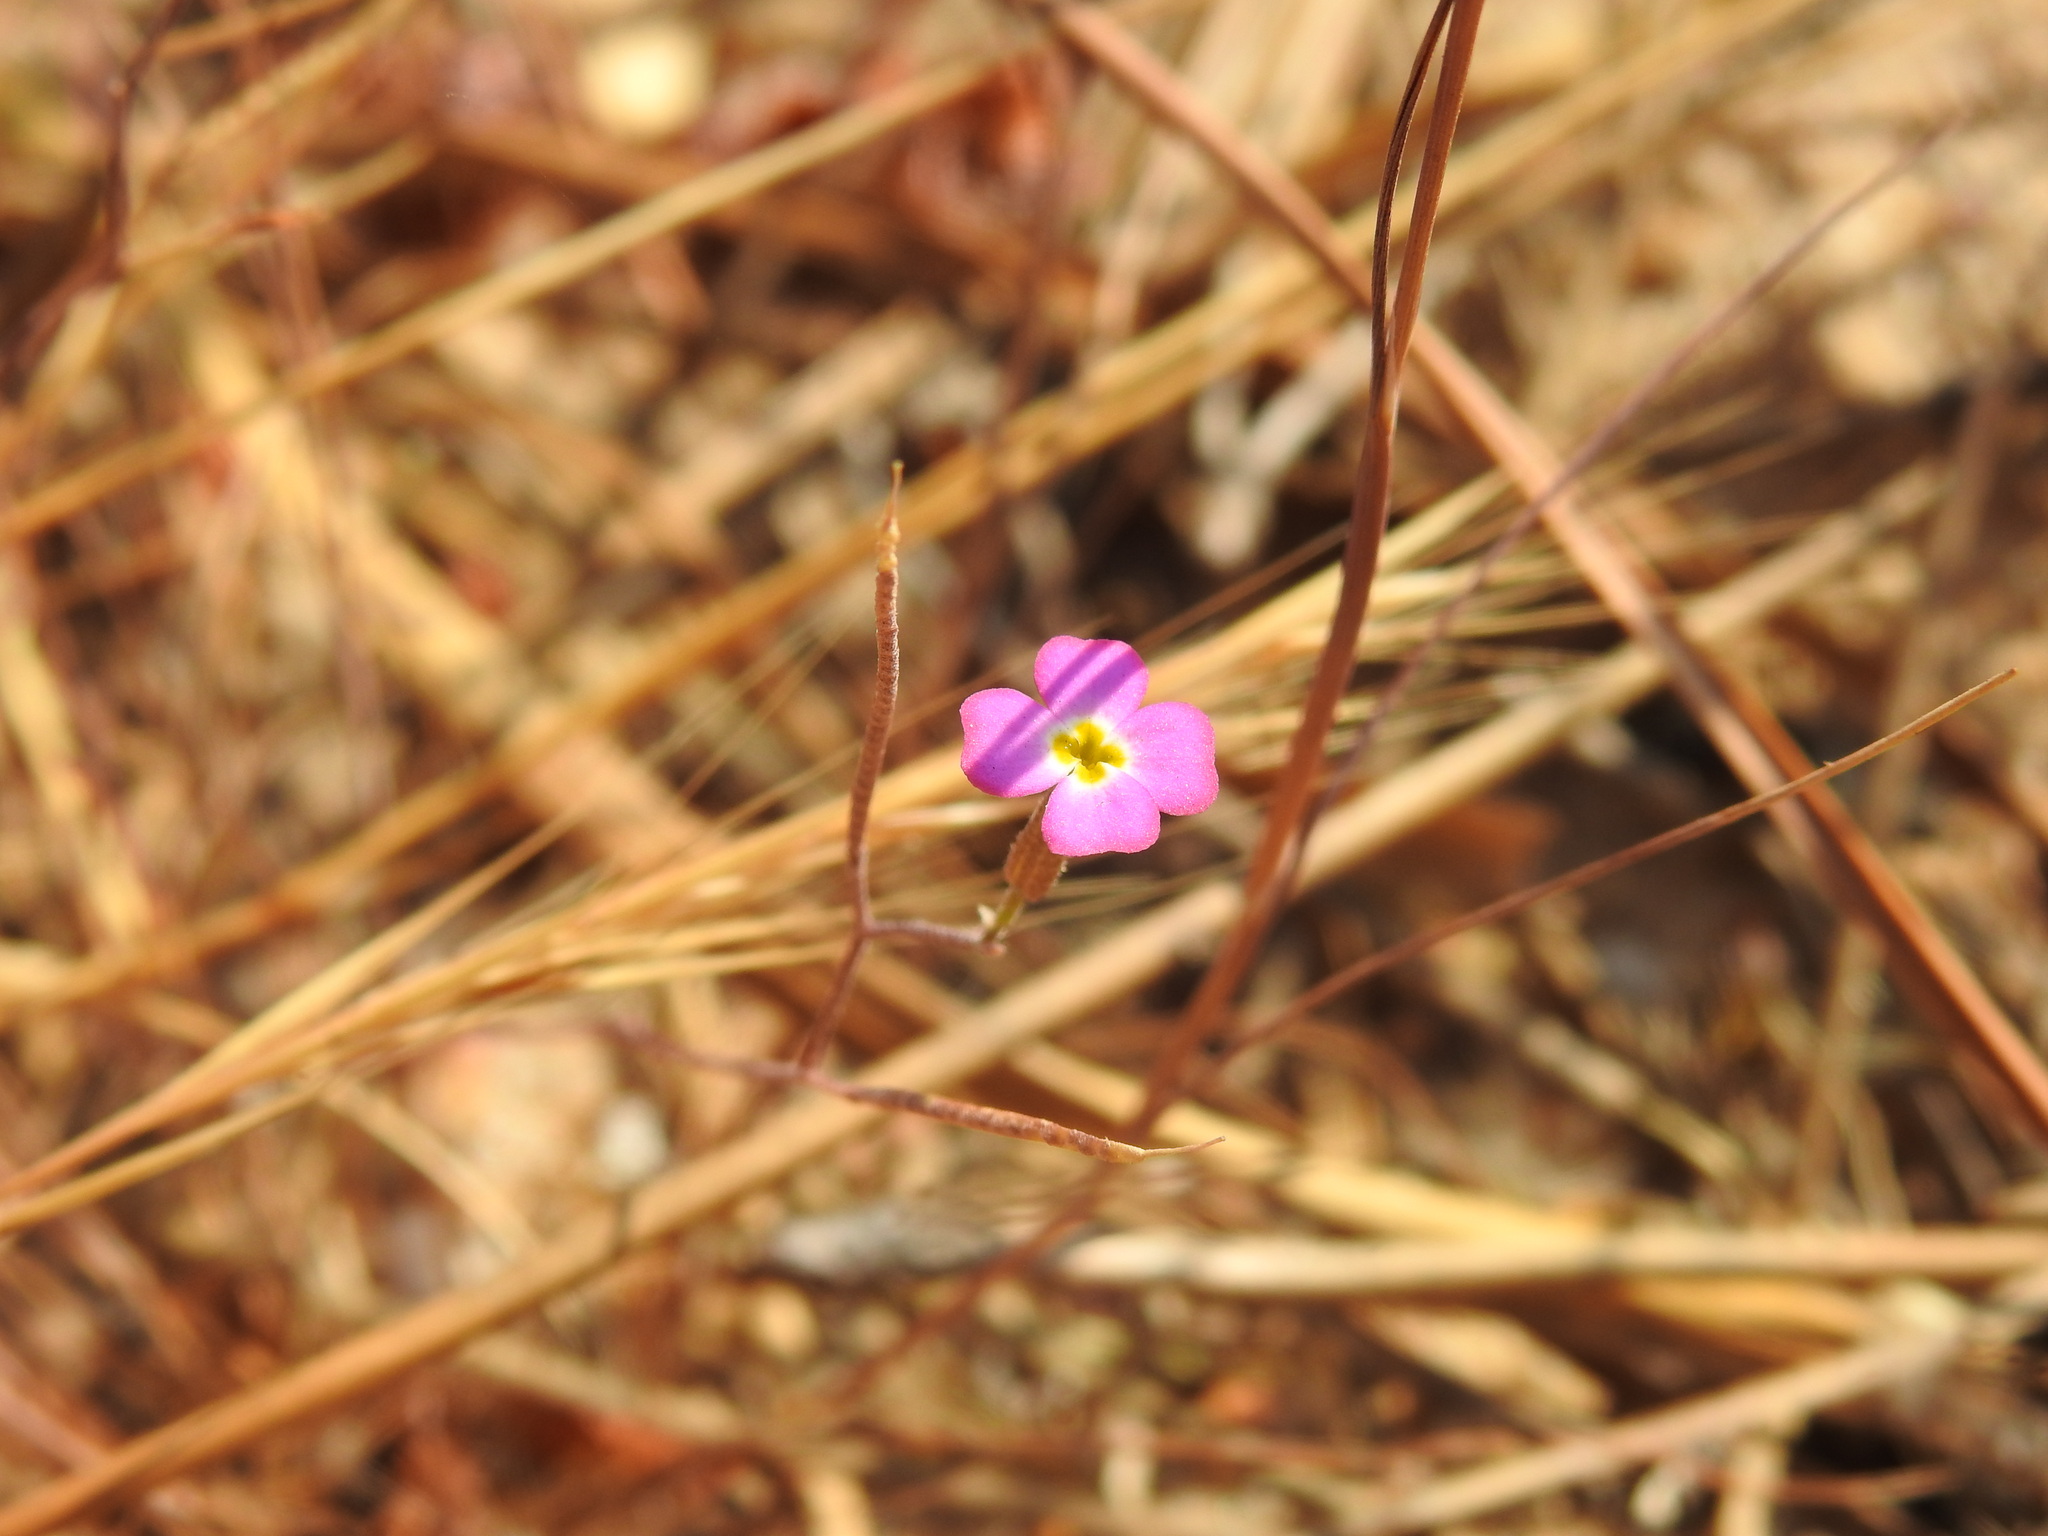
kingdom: Plantae
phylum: Tracheophyta
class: Magnoliopsida
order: Brassicales
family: Brassicaceae
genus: Marcuskochia
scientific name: Marcuskochia triloba
